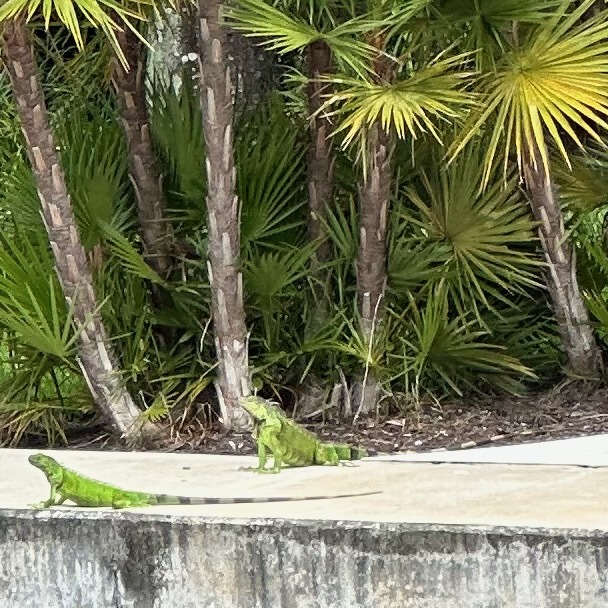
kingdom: Animalia
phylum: Chordata
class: Squamata
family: Iguanidae
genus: Iguana
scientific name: Iguana iguana
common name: Green iguana
